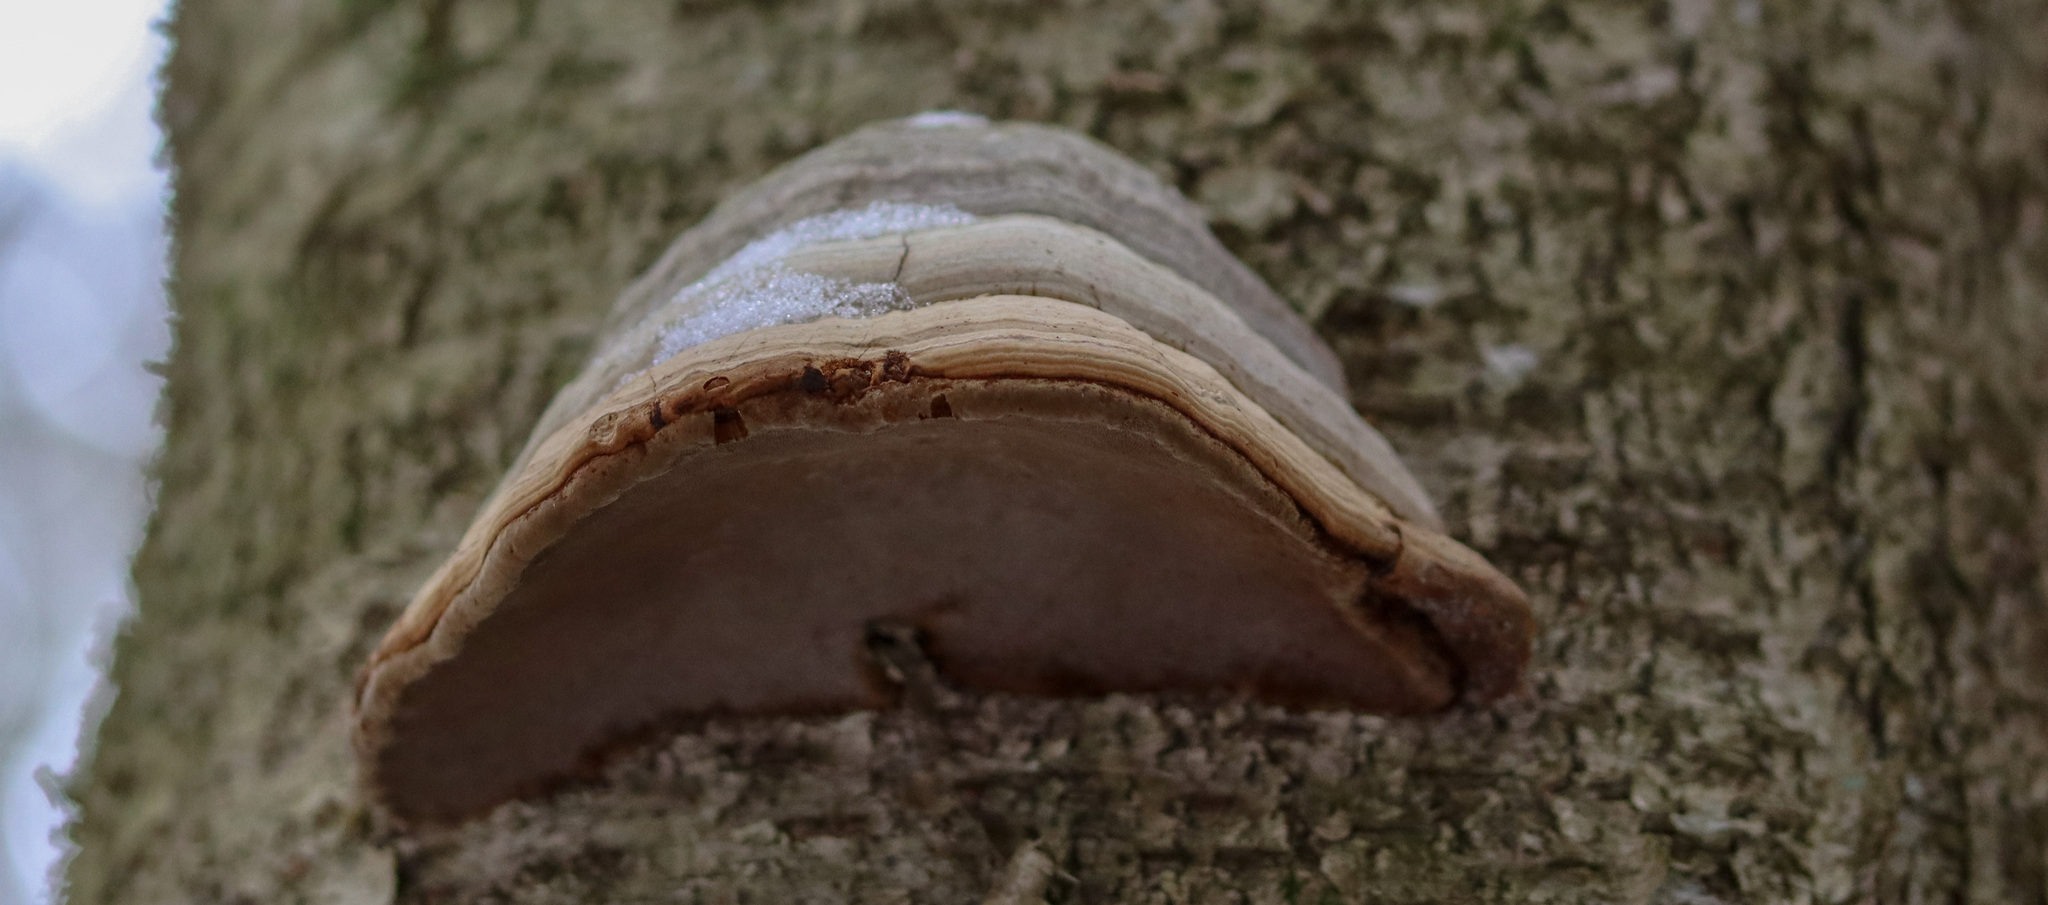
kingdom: Fungi
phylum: Basidiomycota
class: Agaricomycetes
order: Polyporales
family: Polyporaceae
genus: Fomes
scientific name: Fomes fomentarius
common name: Hoof fungus
